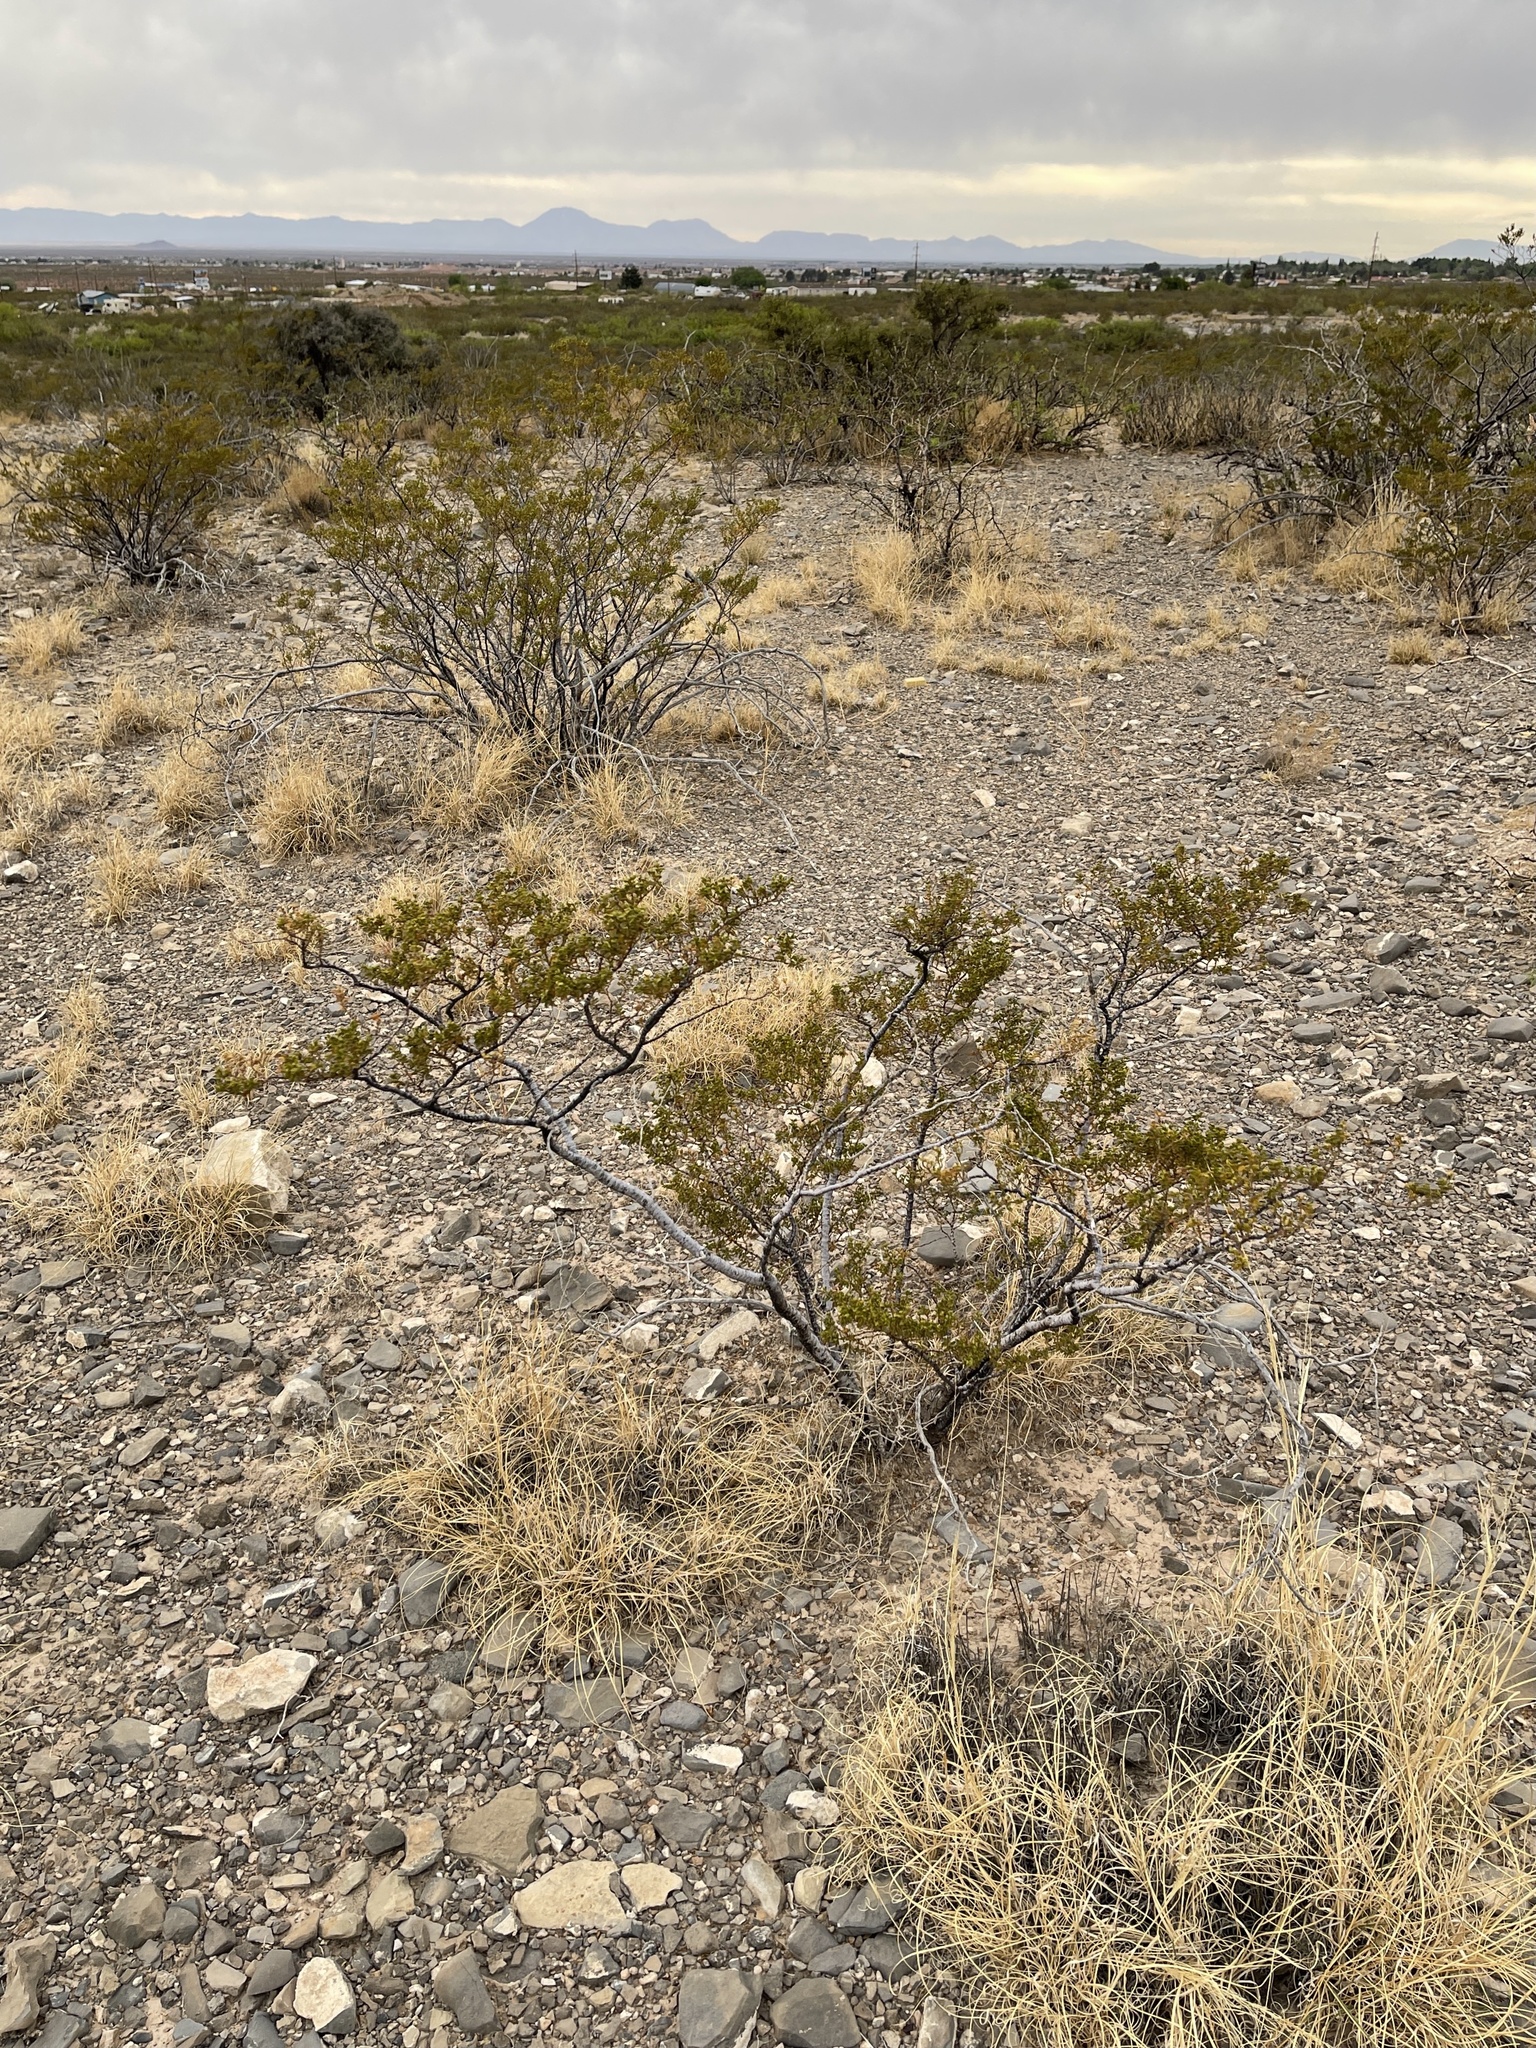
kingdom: Plantae
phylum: Tracheophyta
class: Magnoliopsida
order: Zygophyllales
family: Zygophyllaceae
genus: Larrea
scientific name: Larrea tridentata
